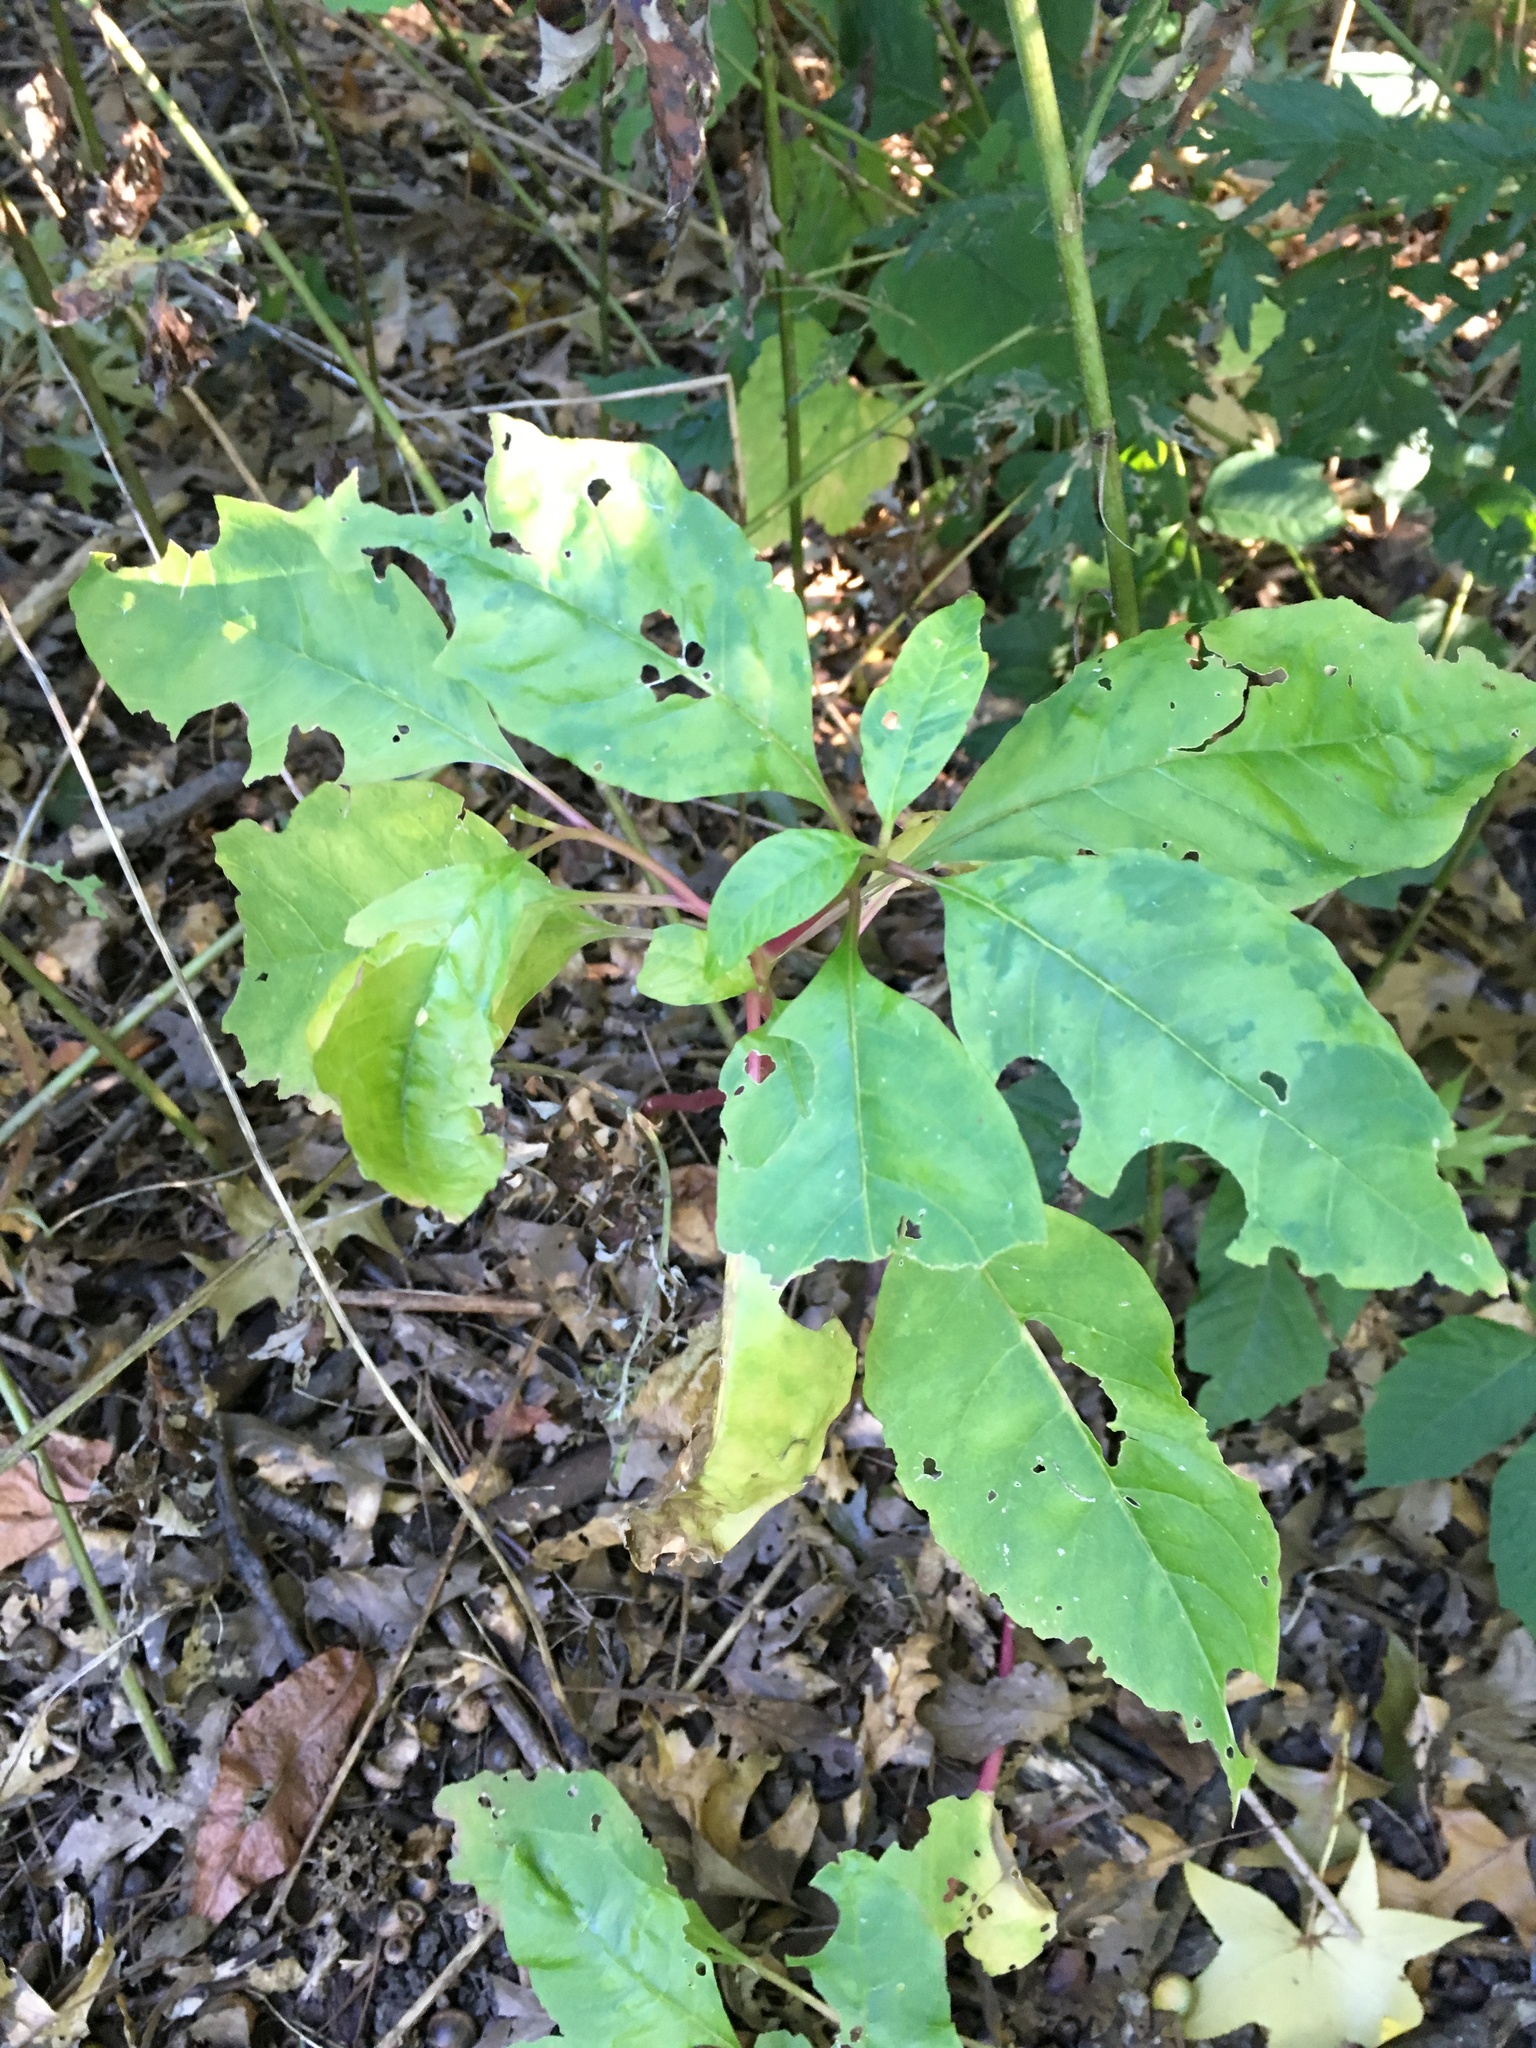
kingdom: Plantae
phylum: Tracheophyta
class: Magnoliopsida
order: Caryophyllales
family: Phytolaccaceae
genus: Phytolacca
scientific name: Phytolacca americana
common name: American pokeweed
